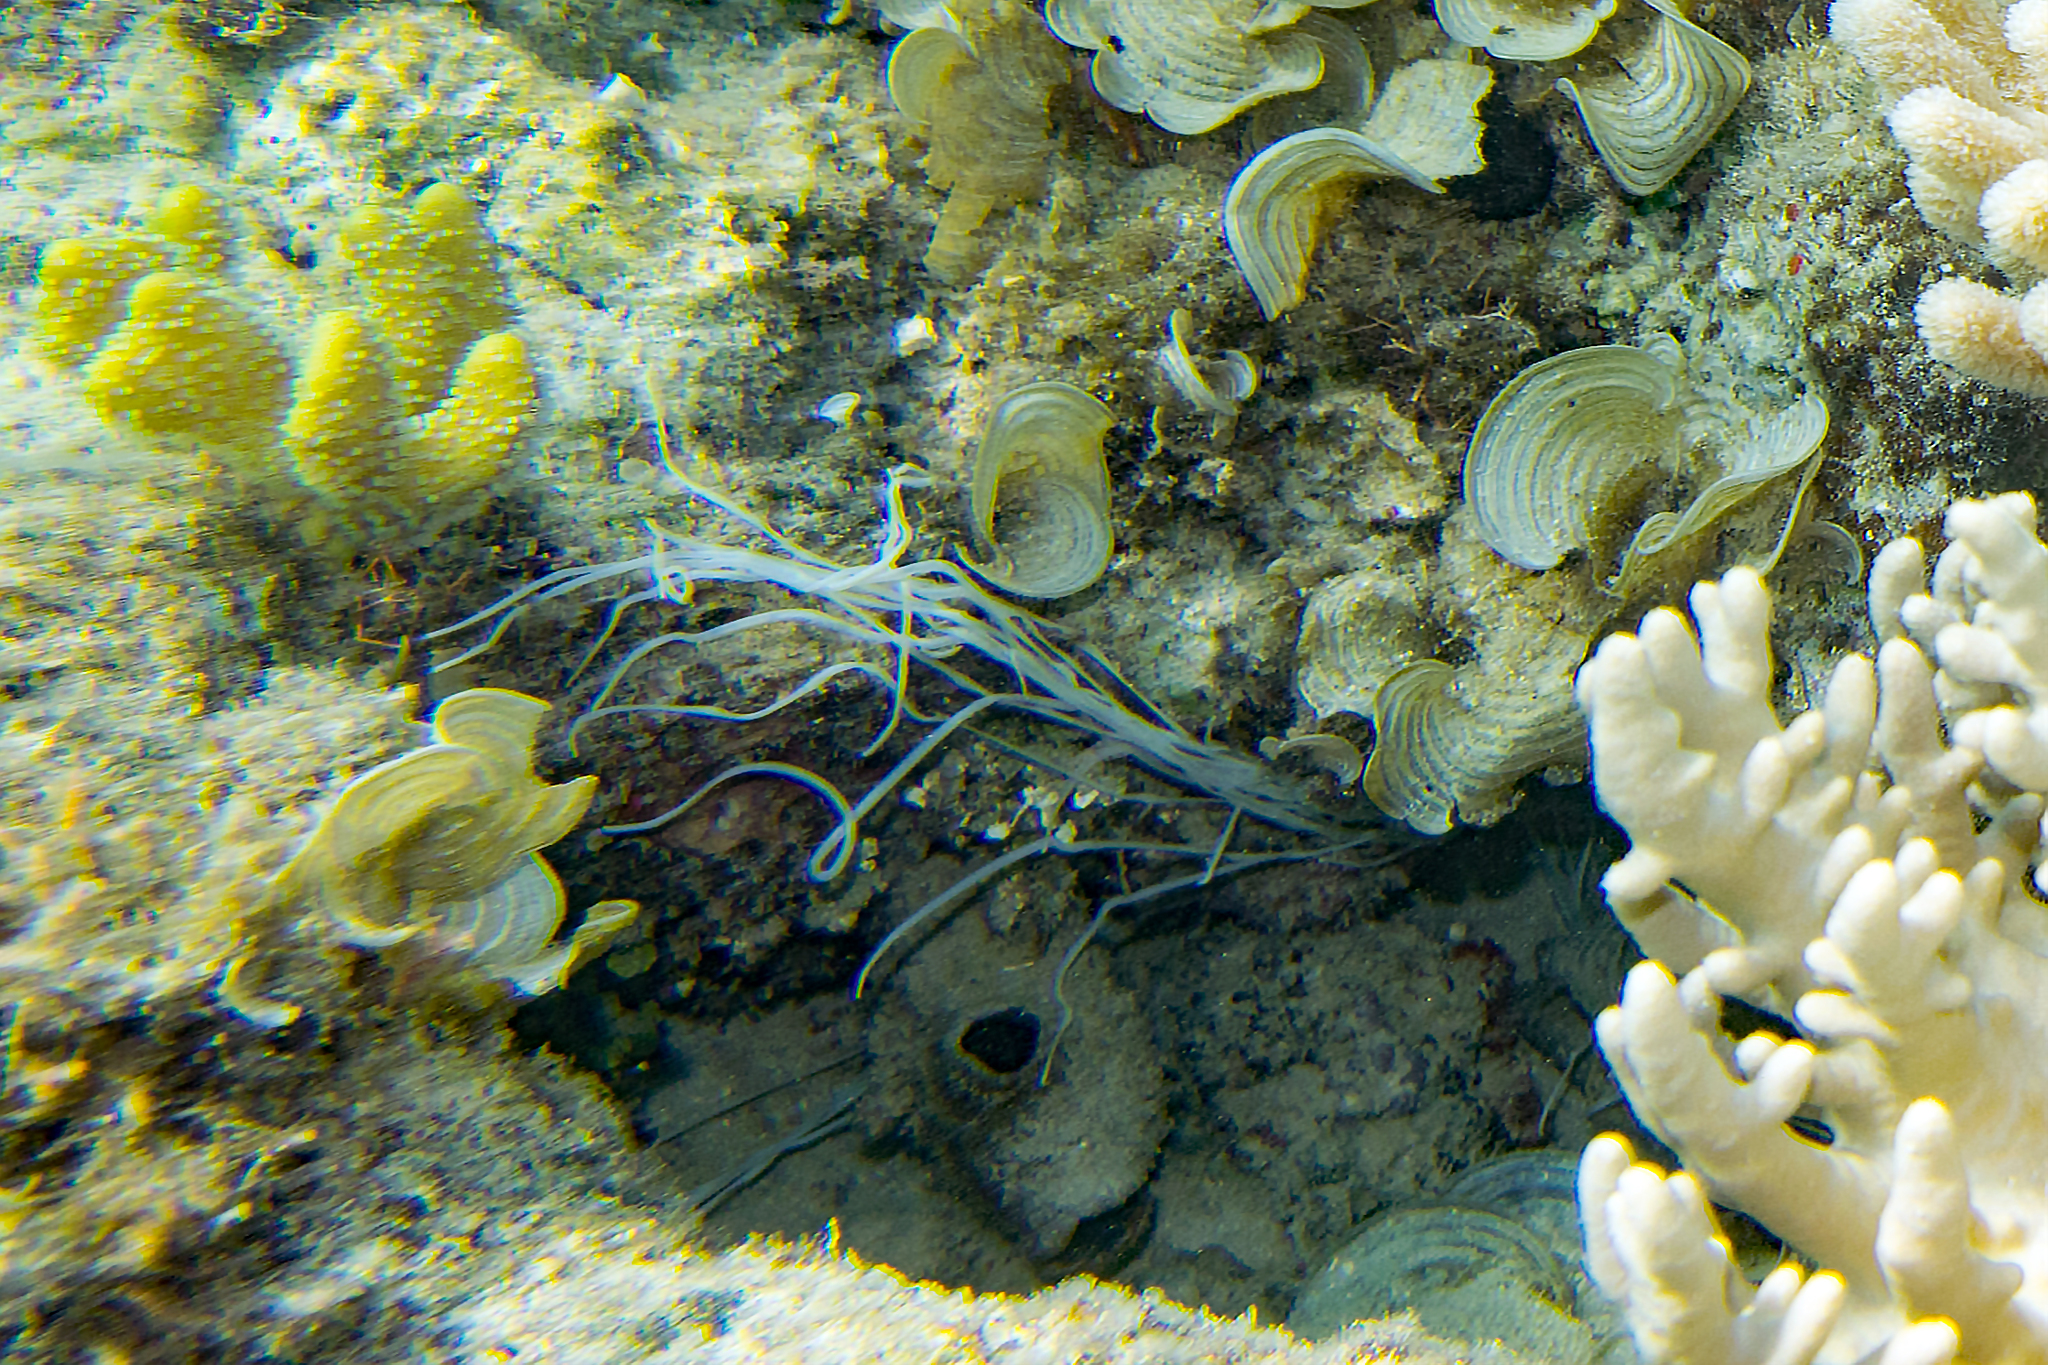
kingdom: Animalia
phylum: Annelida
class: Polychaeta
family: Terebellidae
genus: Reteterebella
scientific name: Reteterebella lirrf
